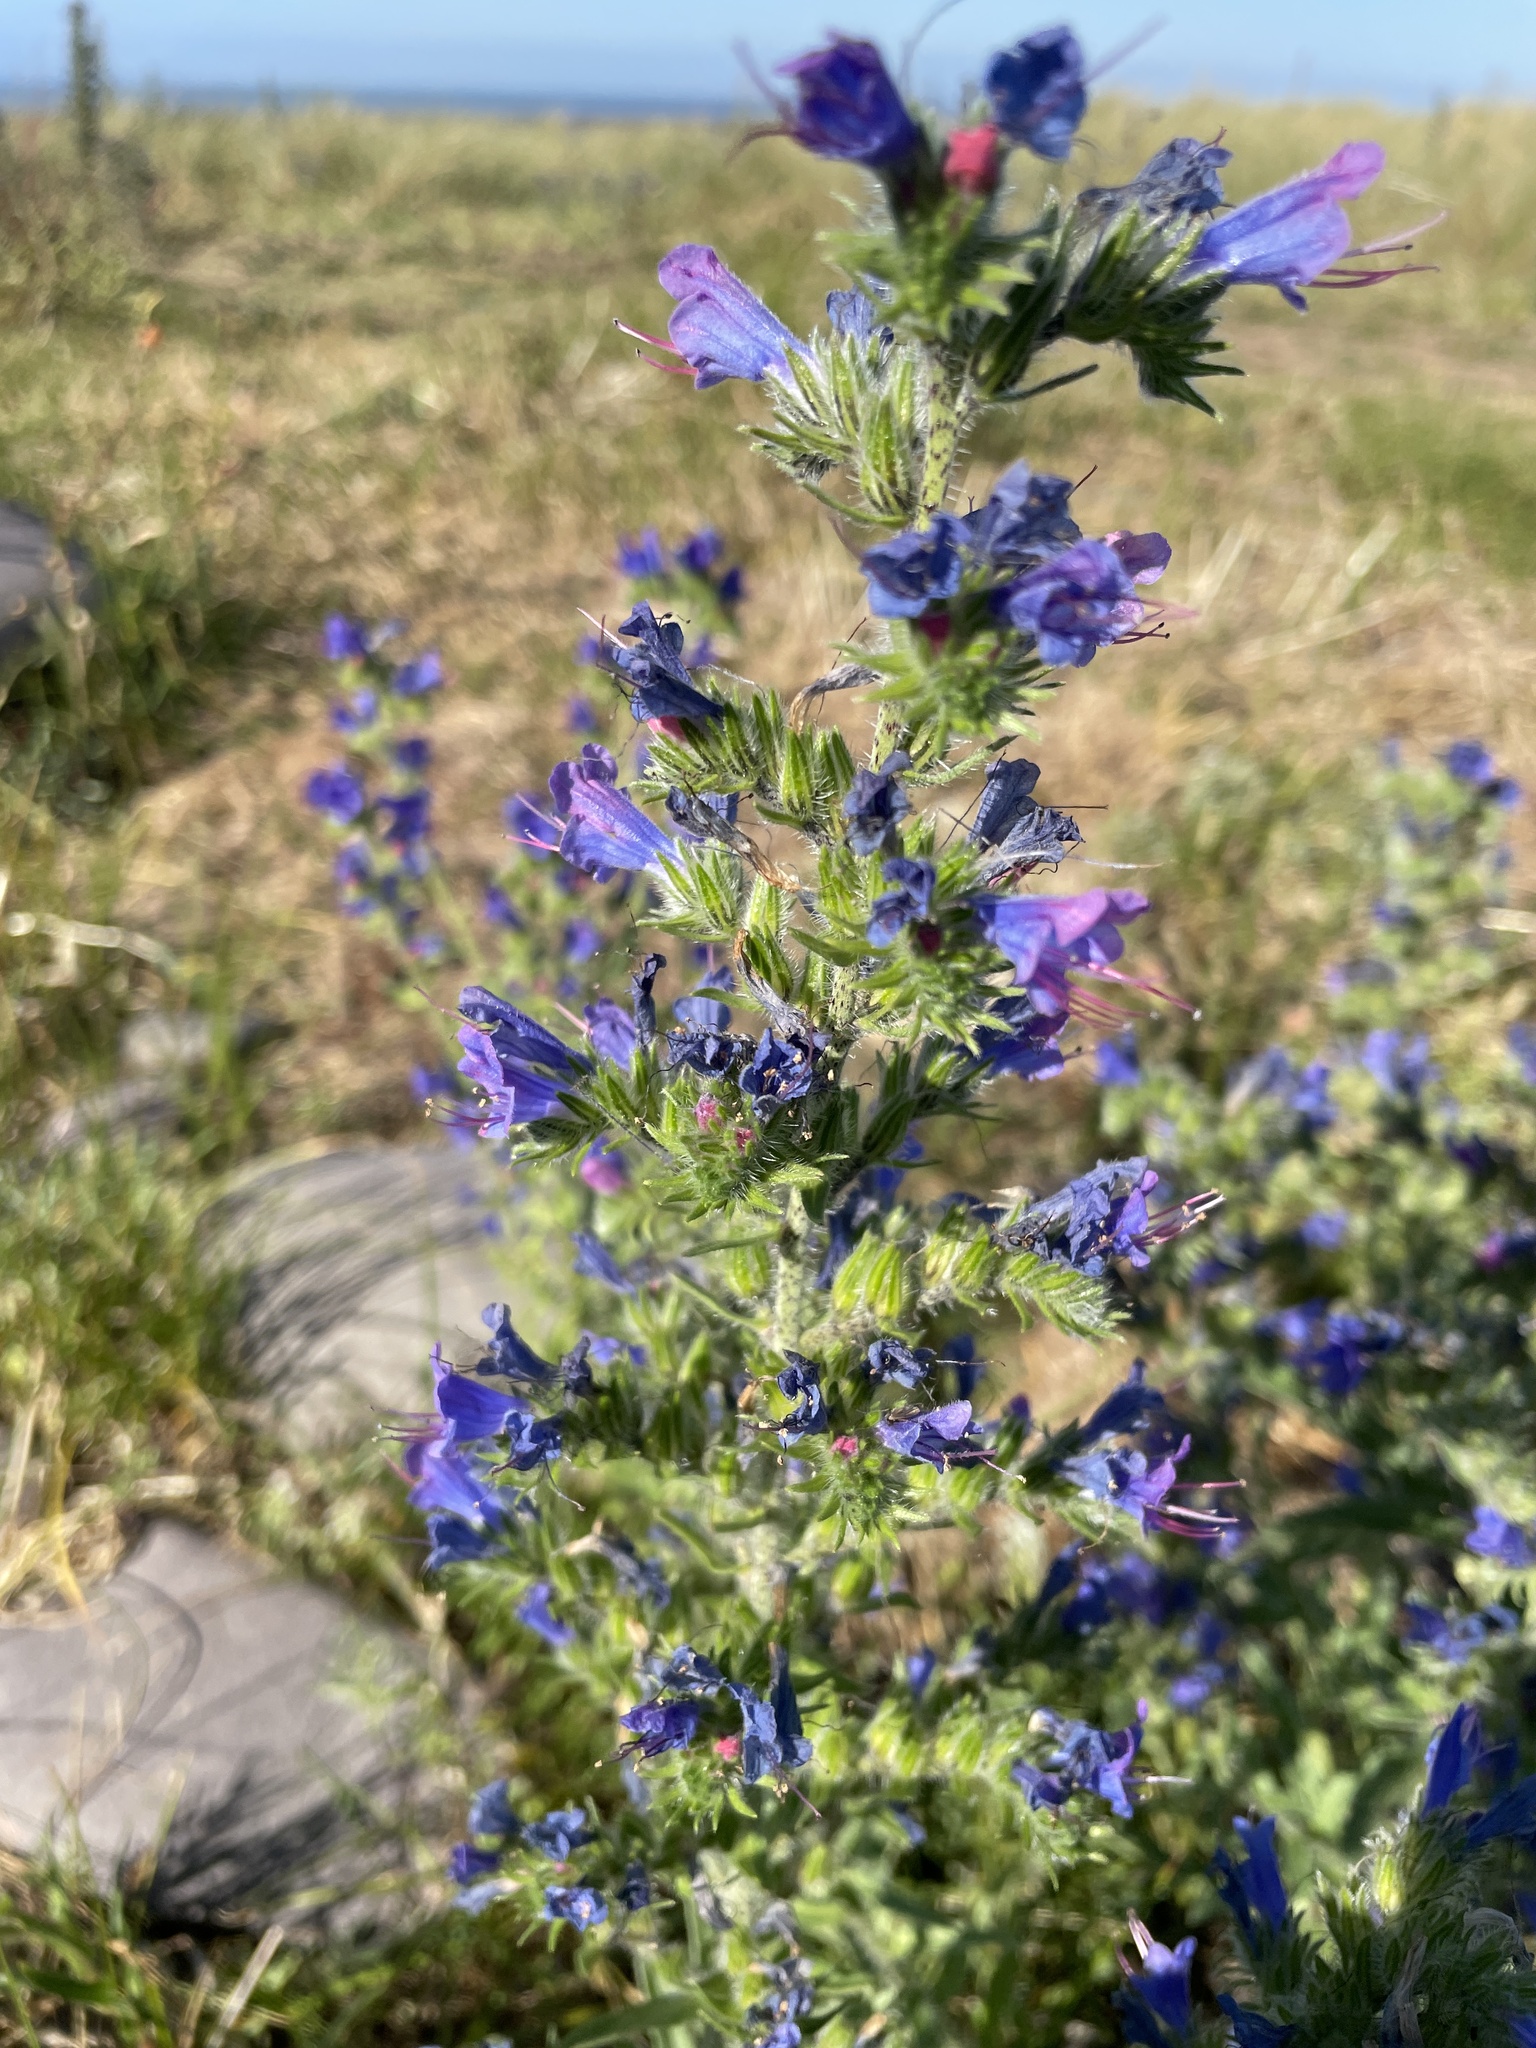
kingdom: Plantae
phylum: Tracheophyta
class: Magnoliopsida
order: Boraginales
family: Boraginaceae
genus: Echium
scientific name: Echium plantagineum
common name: Purple viper's-bugloss
